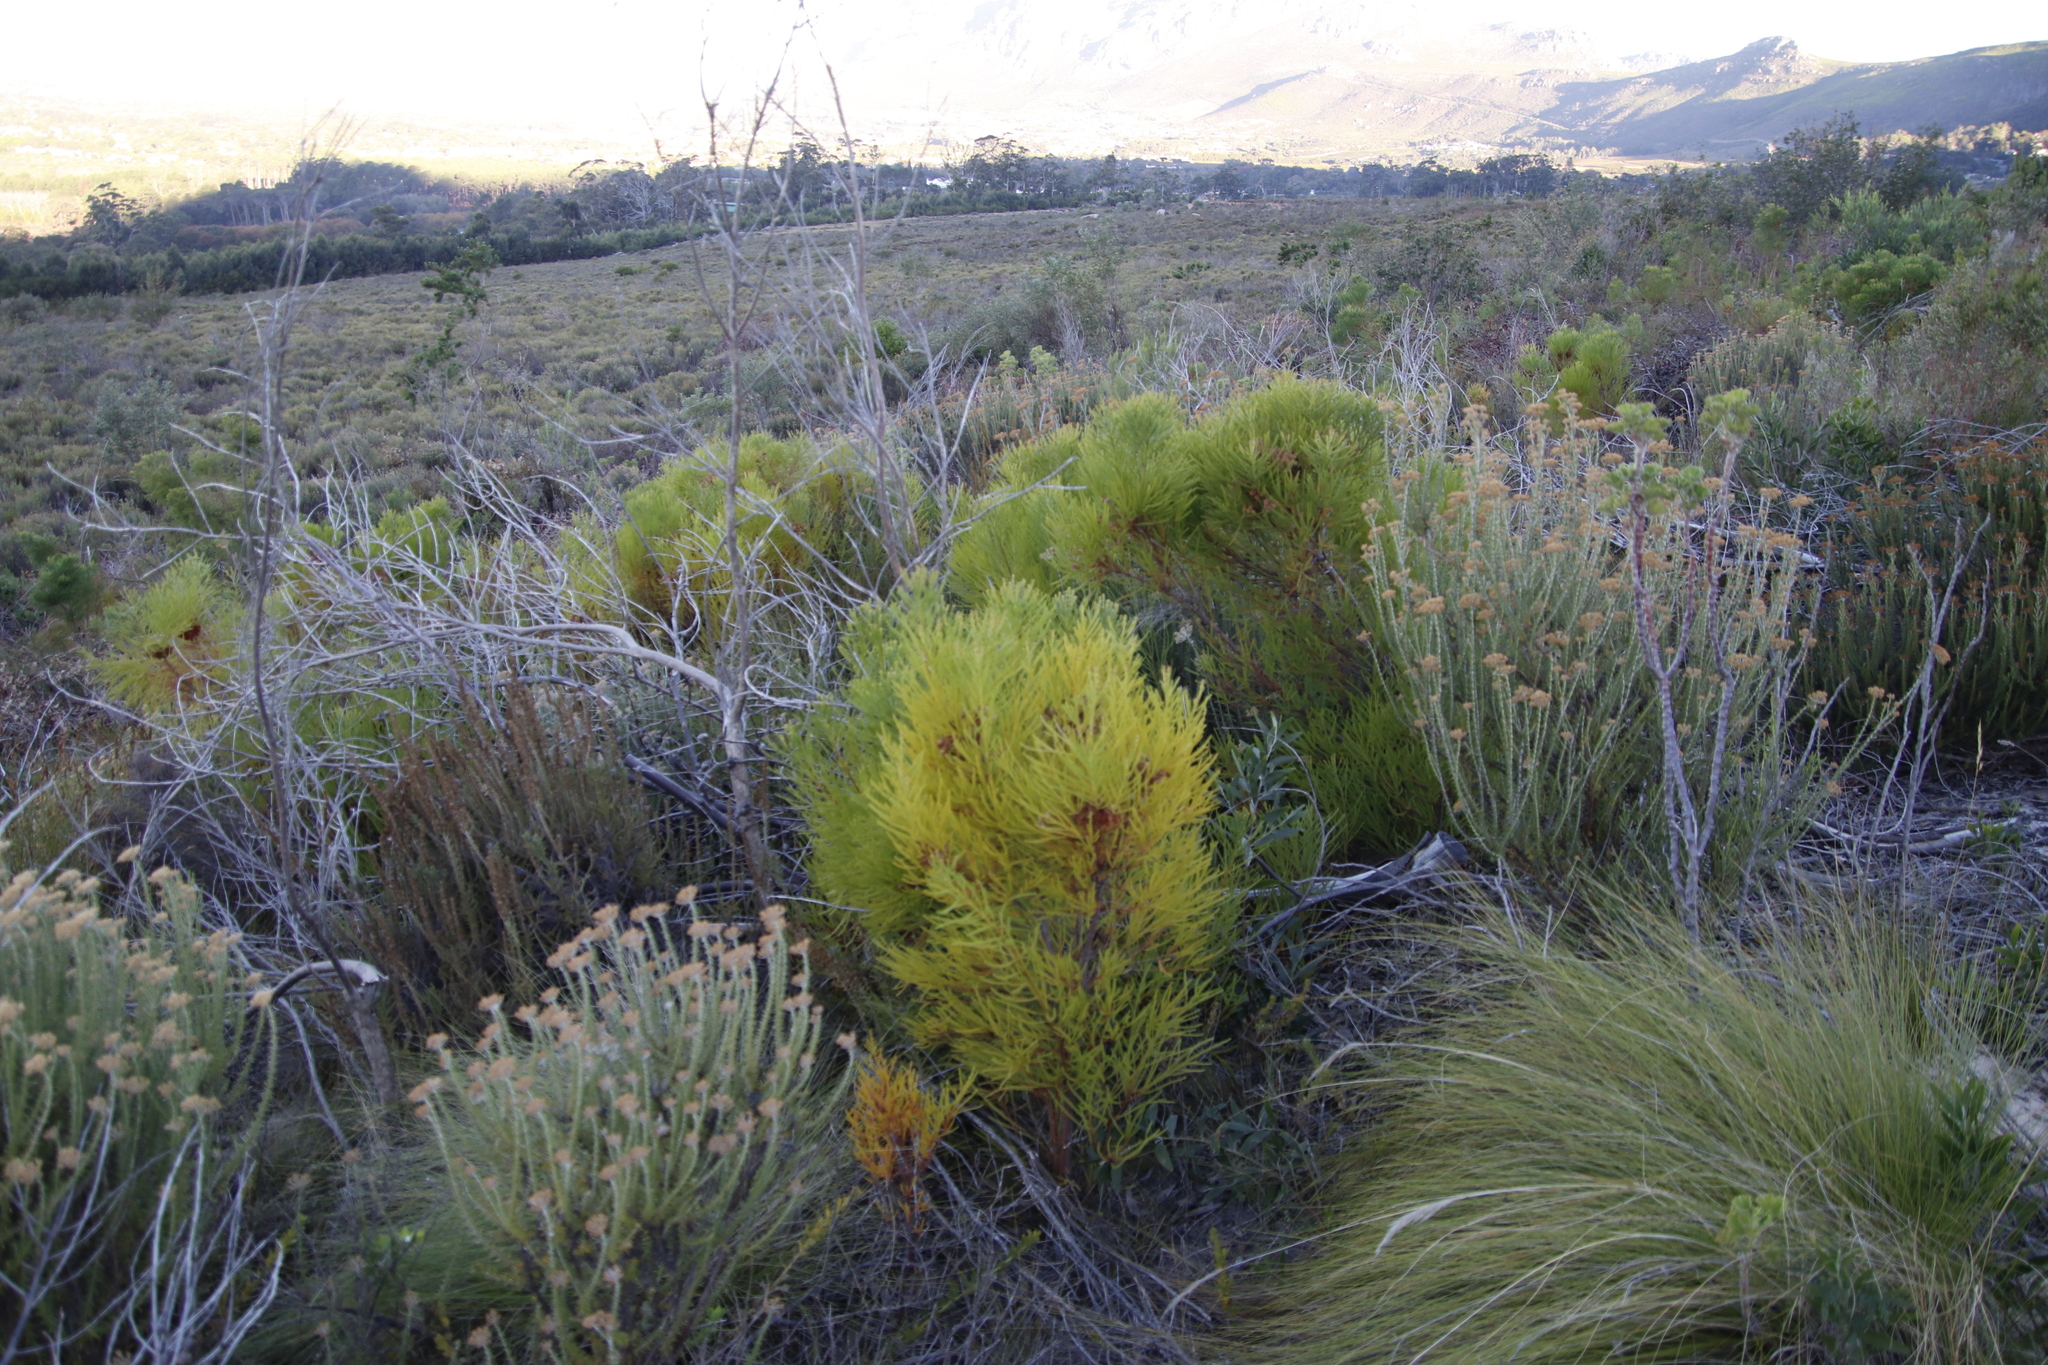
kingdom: Plantae
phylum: Tracheophyta
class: Magnoliopsida
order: Bruniales
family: Bruniaceae
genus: Berzelia
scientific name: Berzelia lanuginosa
